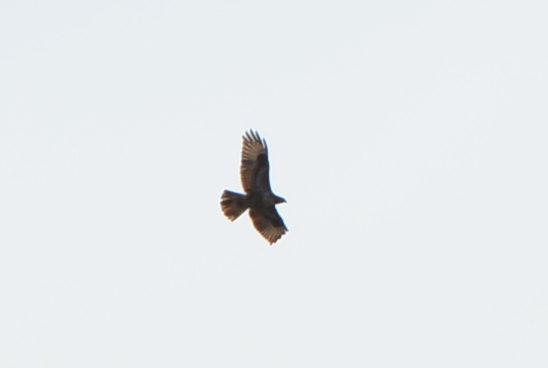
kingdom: Animalia
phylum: Chordata
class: Aves
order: Accipitriformes
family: Accipitridae
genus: Buteo
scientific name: Buteo buteo
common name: Common buzzard
